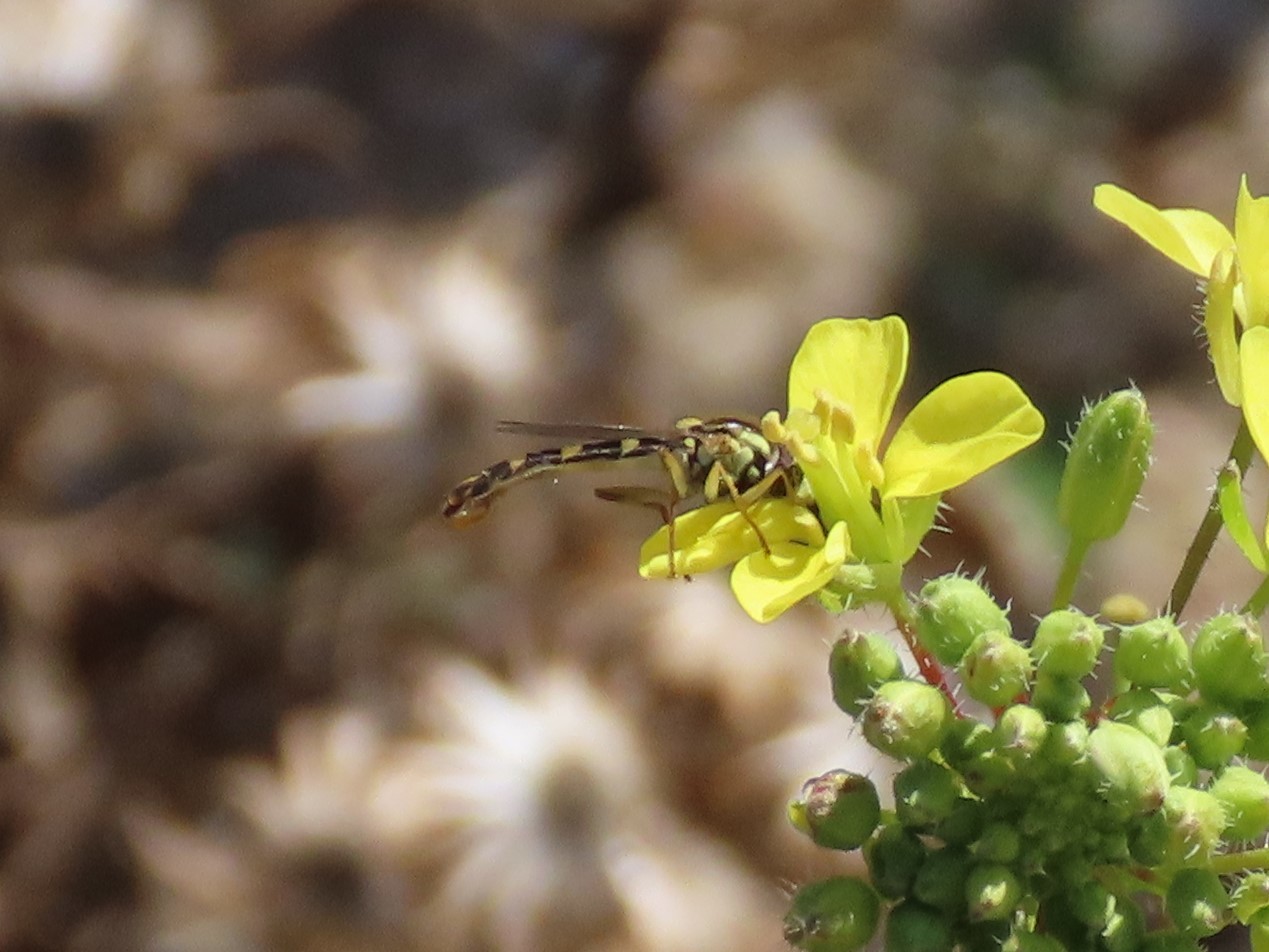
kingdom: Animalia
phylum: Arthropoda
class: Insecta
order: Diptera
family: Syrphidae
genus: Sphaerophoria
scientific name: Sphaerophoria scripta
